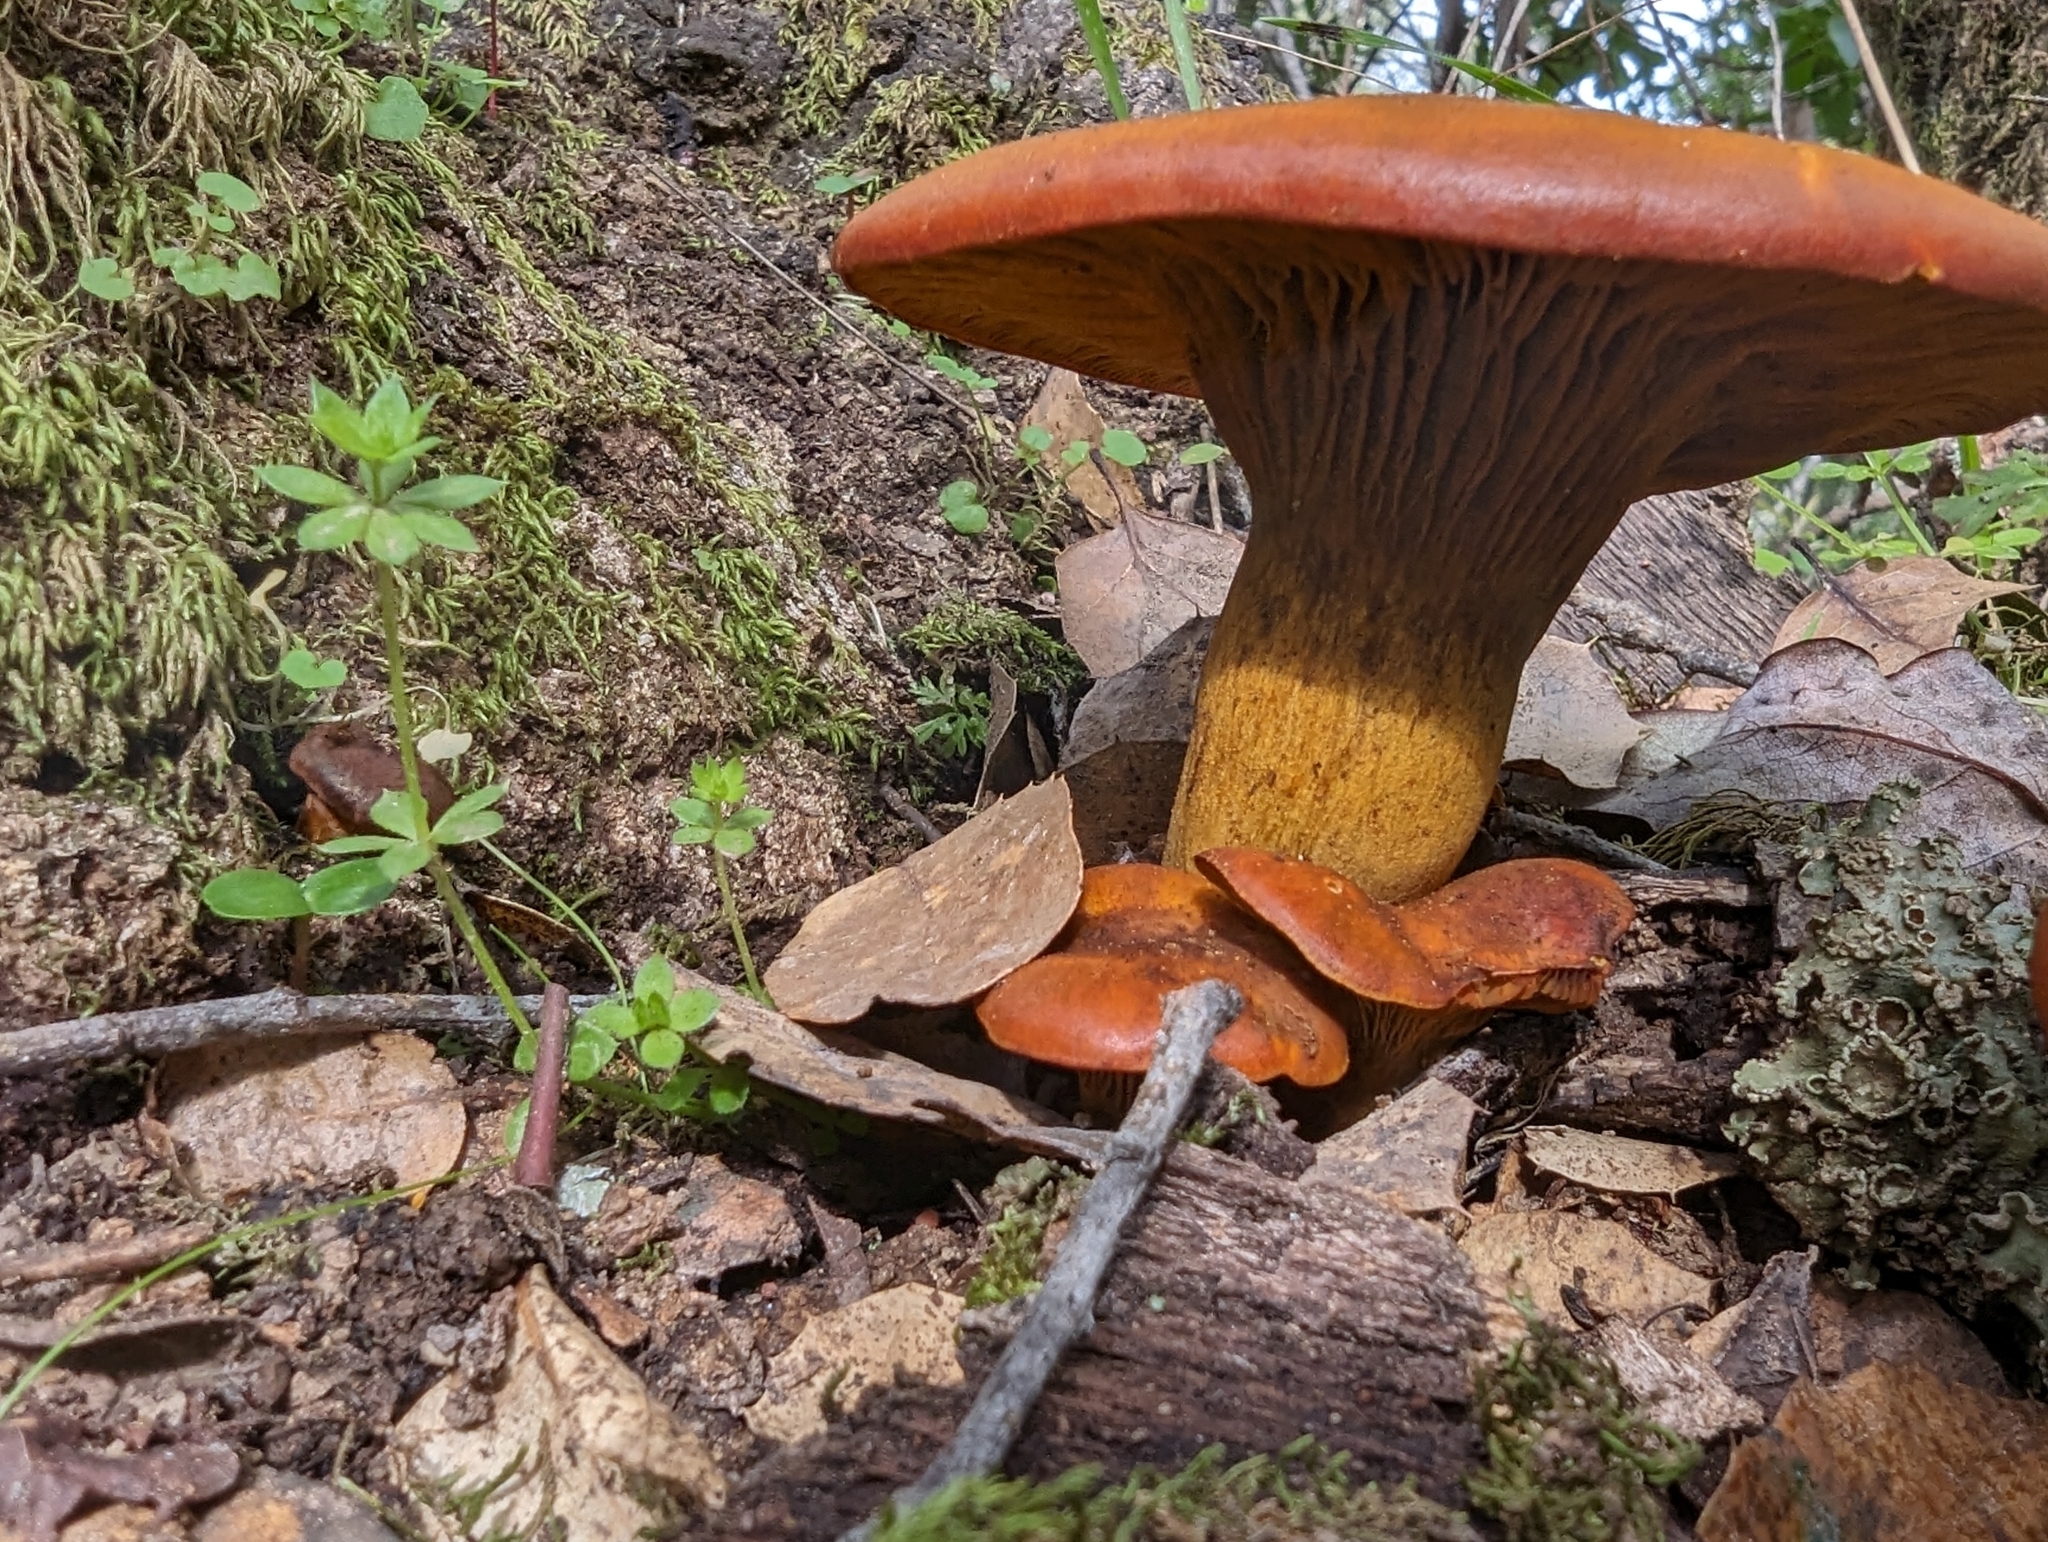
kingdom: Fungi
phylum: Basidiomycota
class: Agaricomycetes
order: Agaricales
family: Omphalotaceae
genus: Omphalotus
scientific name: Omphalotus olivascens
